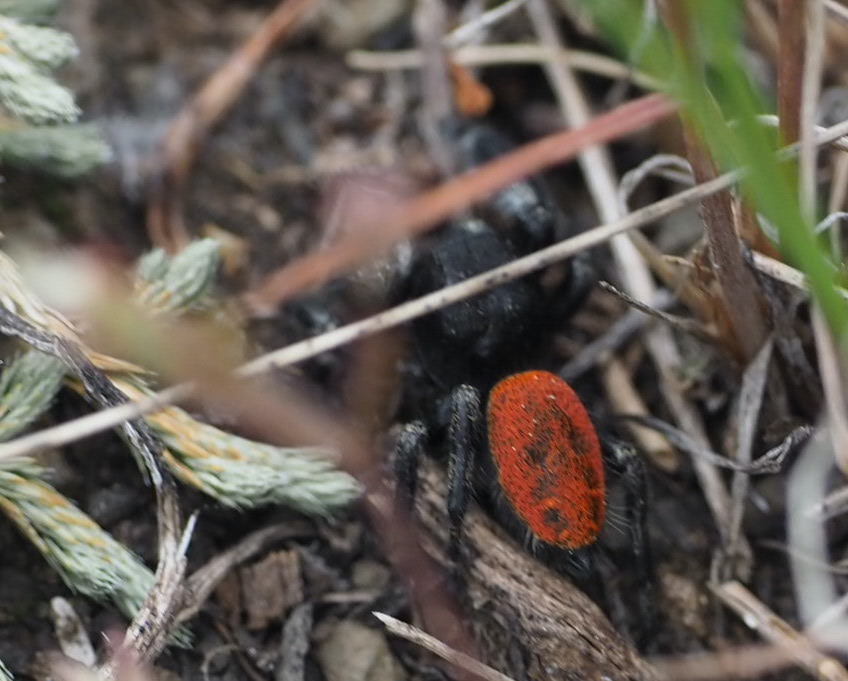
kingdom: Animalia
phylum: Arthropoda
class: Arachnida
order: Araneae
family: Salticidae
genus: Phidippus
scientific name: Phidippus johnsoni
